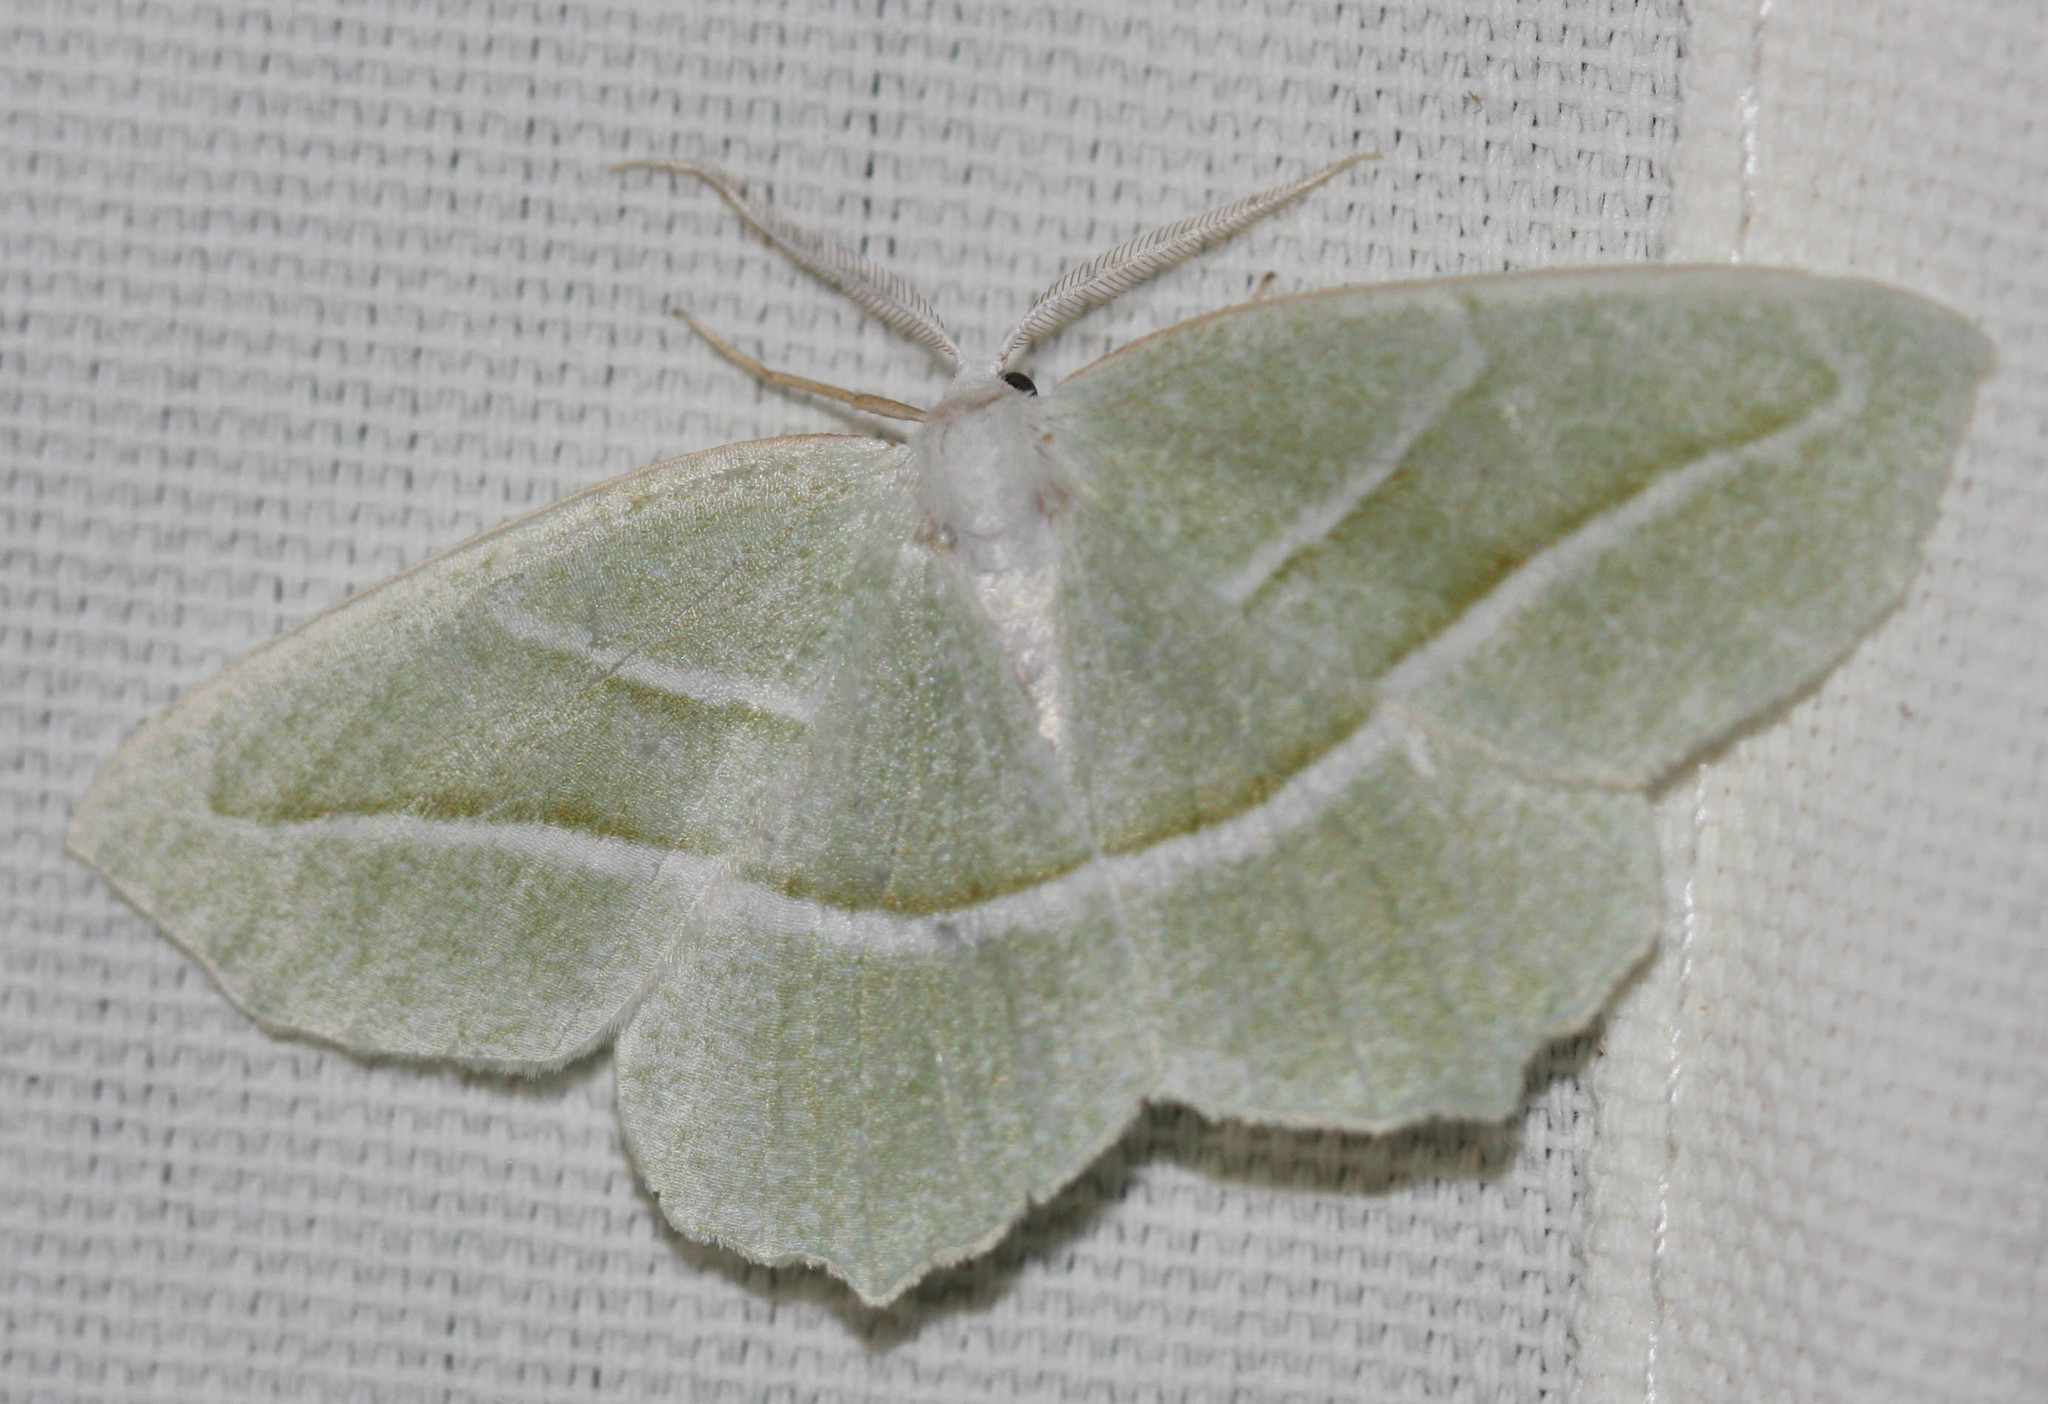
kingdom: Animalia
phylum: Arthropoda
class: Insecta
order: Lepidoptera
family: Geometridae
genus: Campaea
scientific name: Campaea perlata
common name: Fringed looper
